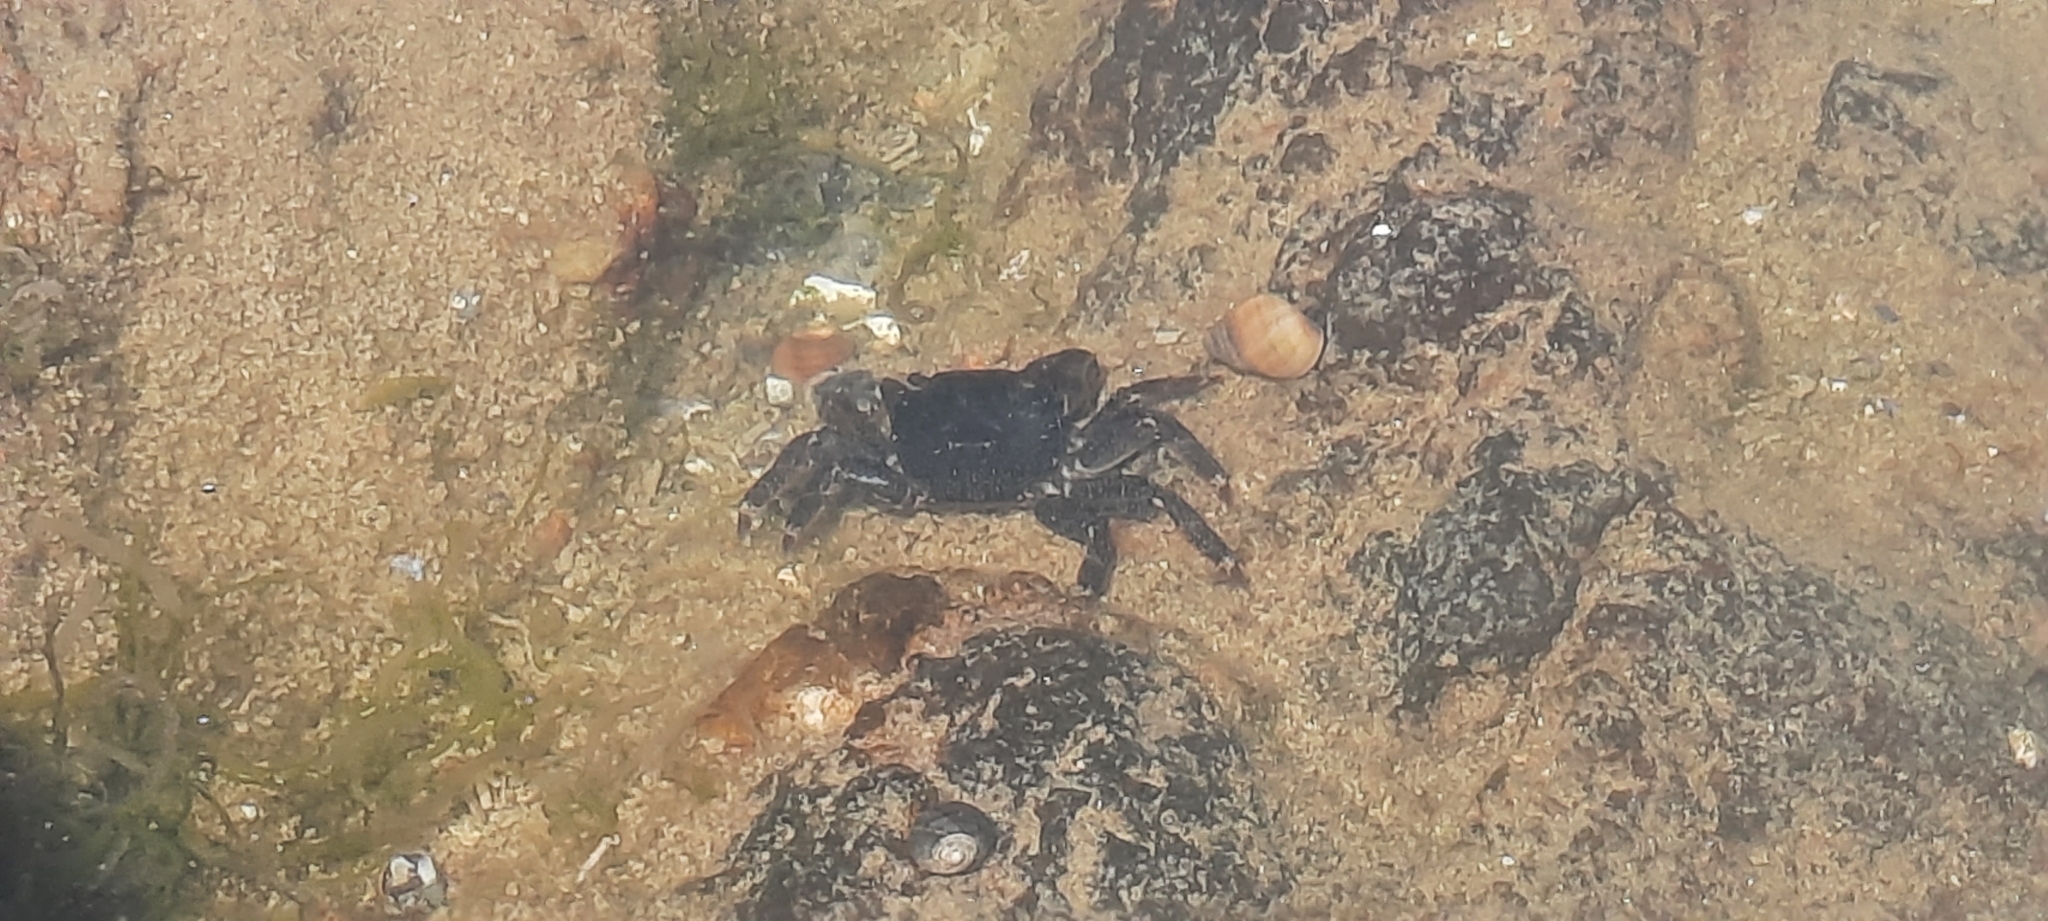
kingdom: Animalia
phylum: Arthropoda
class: Malacostraca
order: Decapoda
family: Grapsidae
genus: Pachygrapsus
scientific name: Pachygrapsus marmoratus
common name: Marbled rock crab
